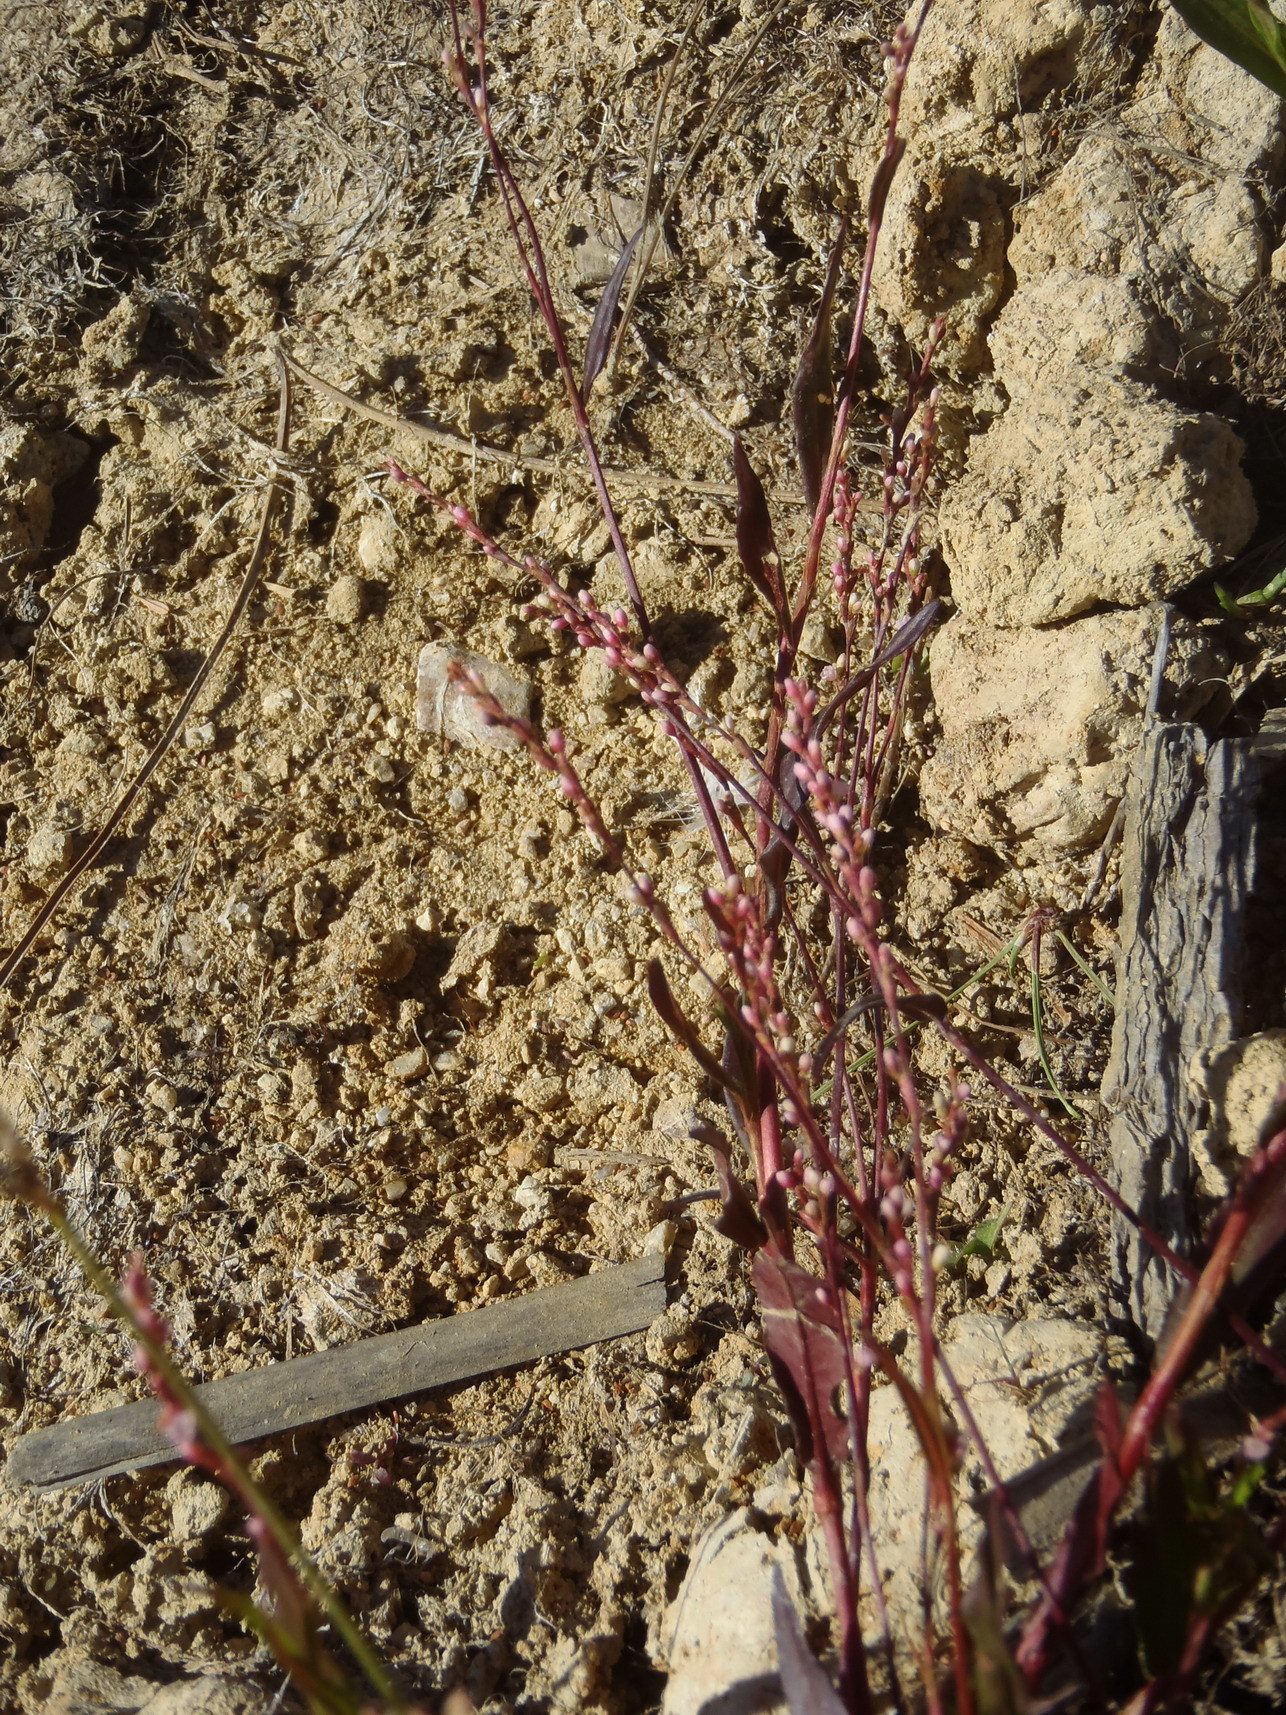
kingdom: Plantae
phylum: Tracheophyta
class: Magnoliopsida
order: Caryophyllales
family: Polygonaceae
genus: Persicaria
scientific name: Persicaria decipiens
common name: Willow-weed
